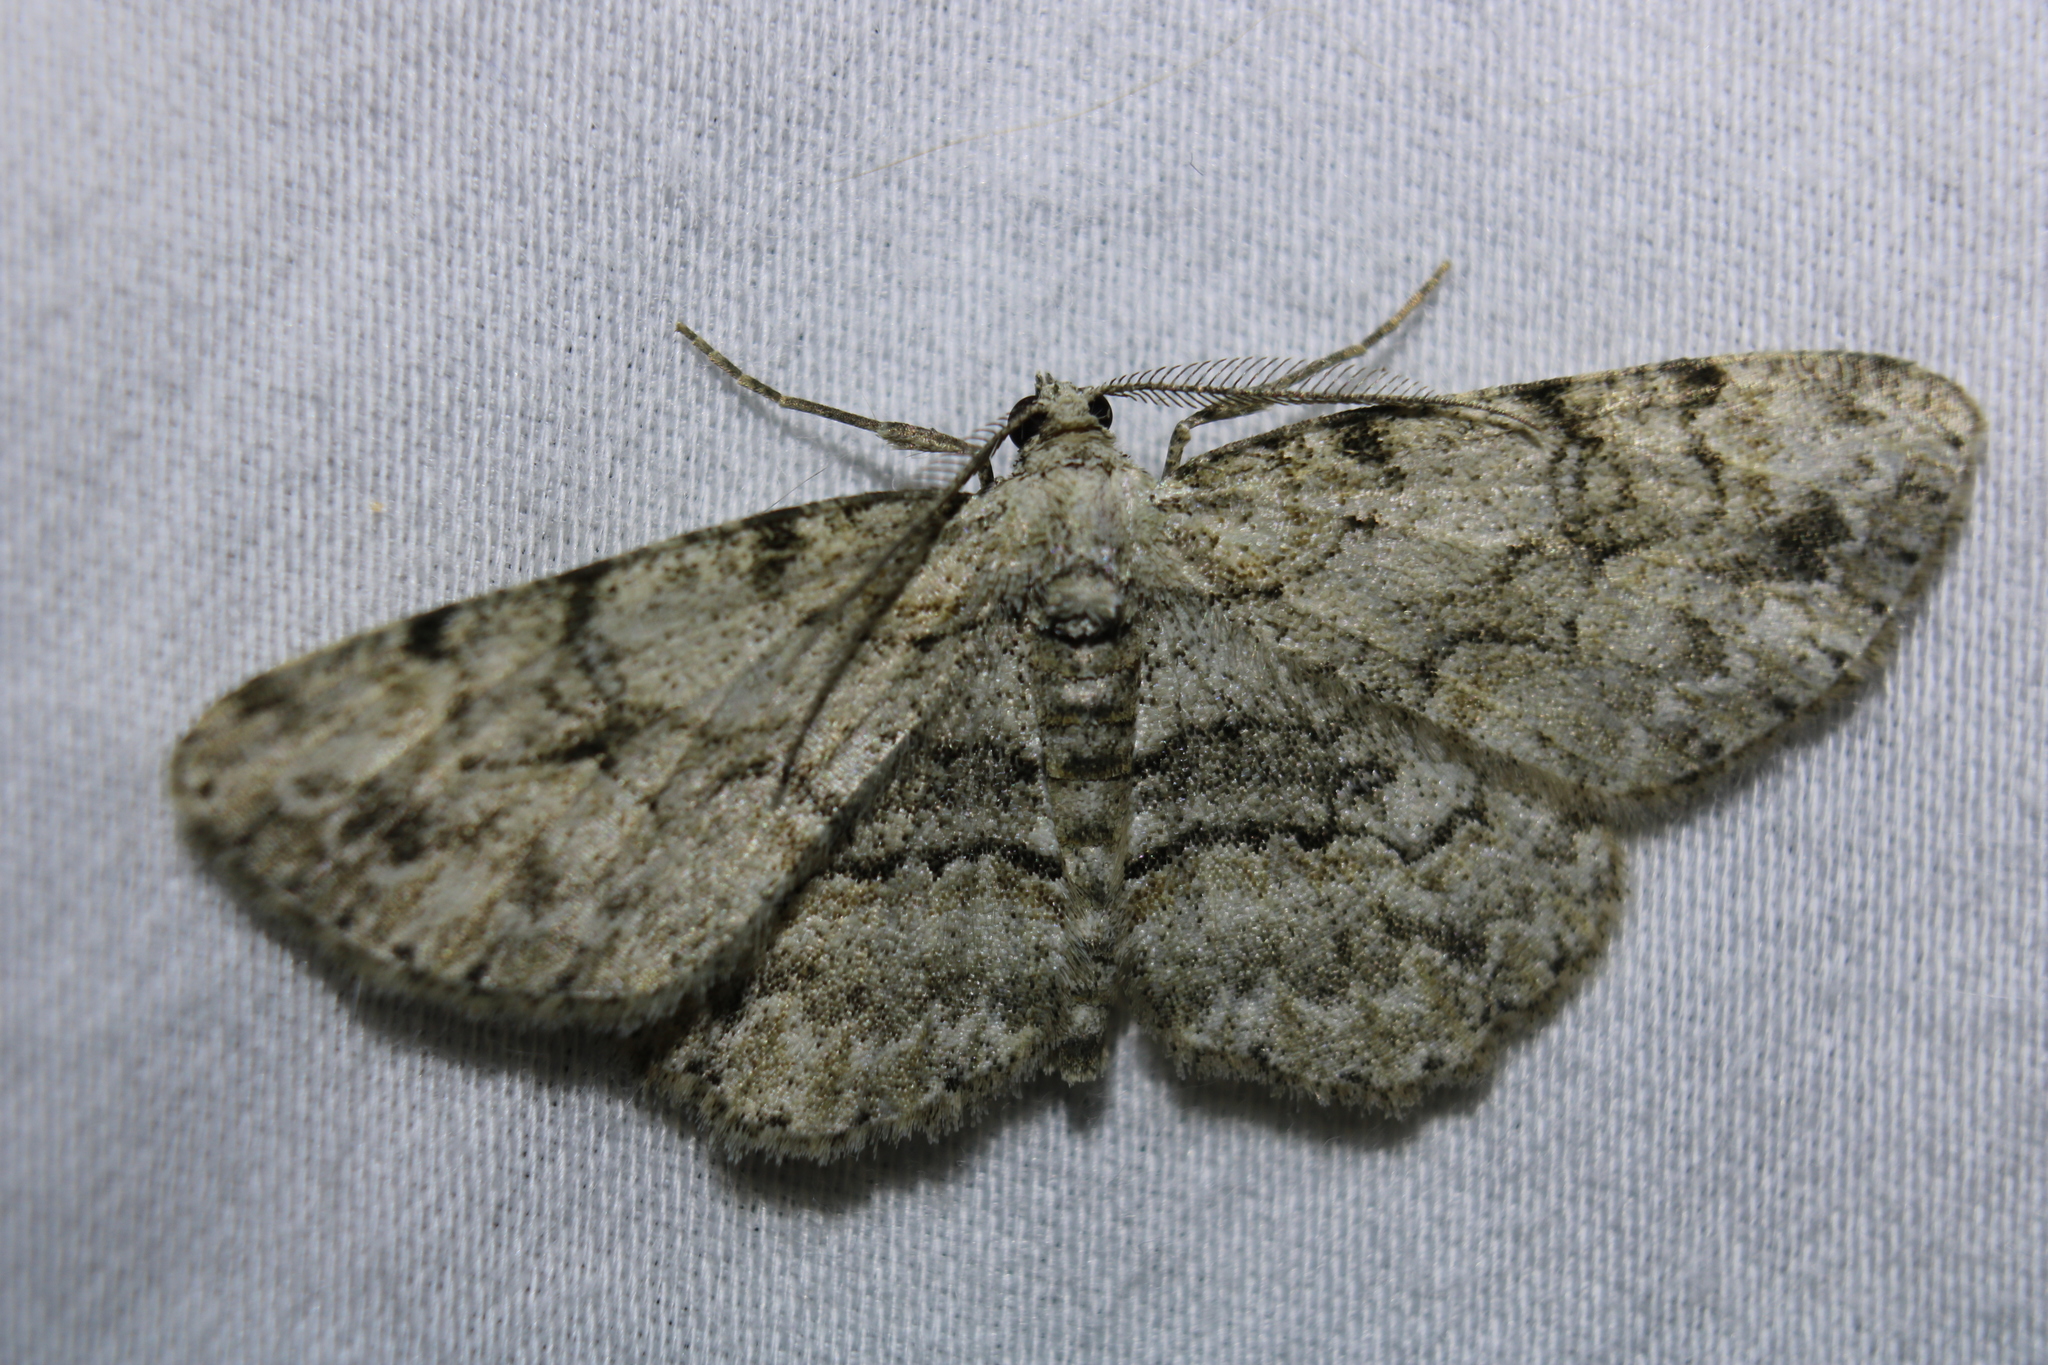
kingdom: Animalia
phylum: Arthropoda
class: Insecta
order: Lepidoptera
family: Geometridae
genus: Iridopsis
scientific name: Iridopsis ephyraria
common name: Pale-winged gray
